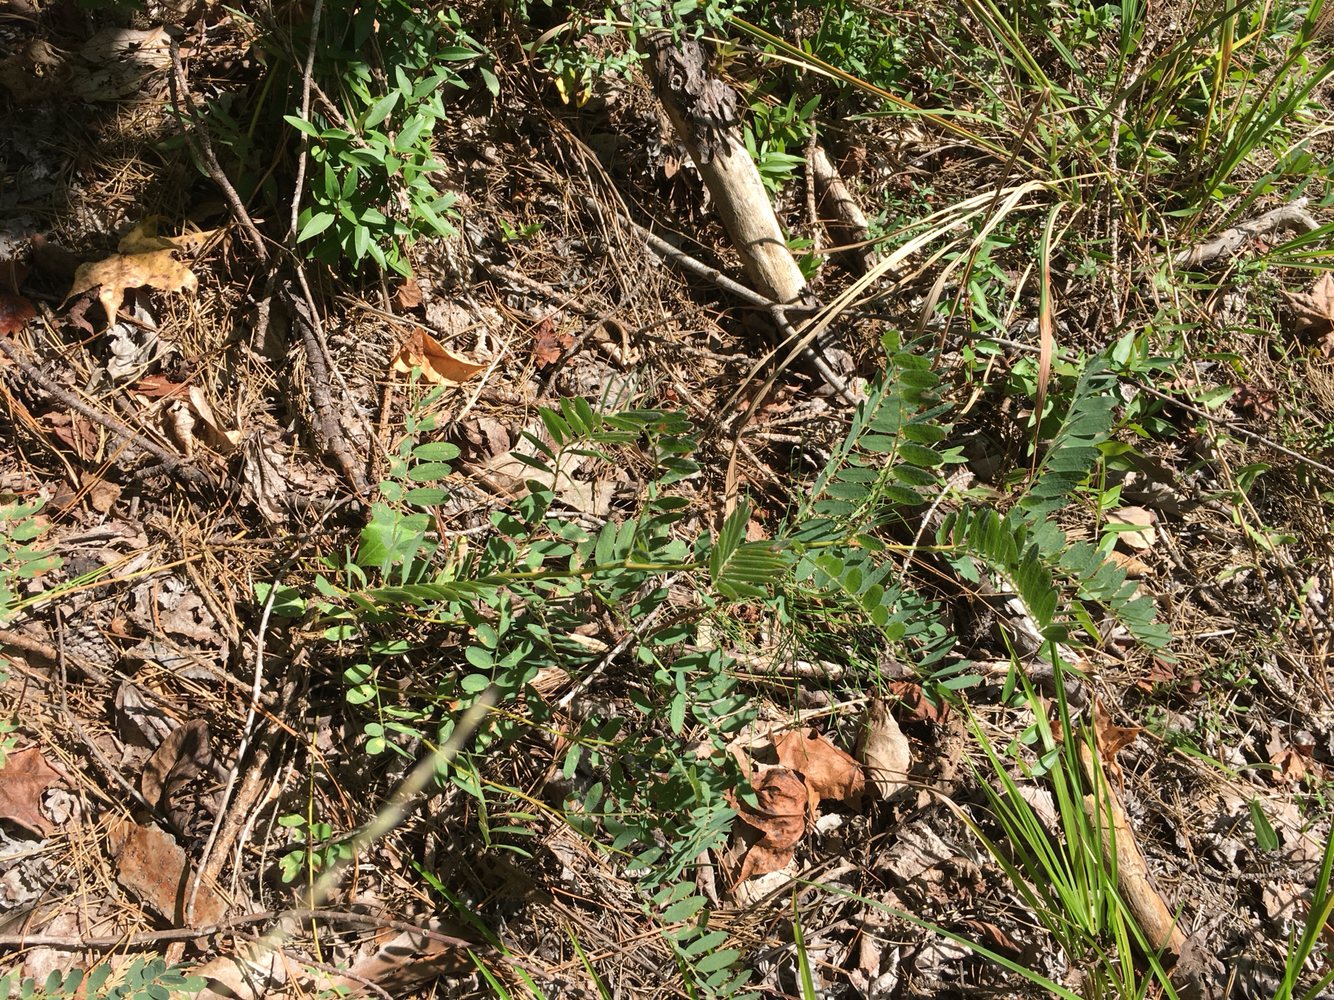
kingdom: Plantae
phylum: Tracheophyta
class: Magnoliopsida
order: Fabales
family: Fabaceae
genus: Tephrosia
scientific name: Tephrosia virginiana
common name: Rabbit-pea
